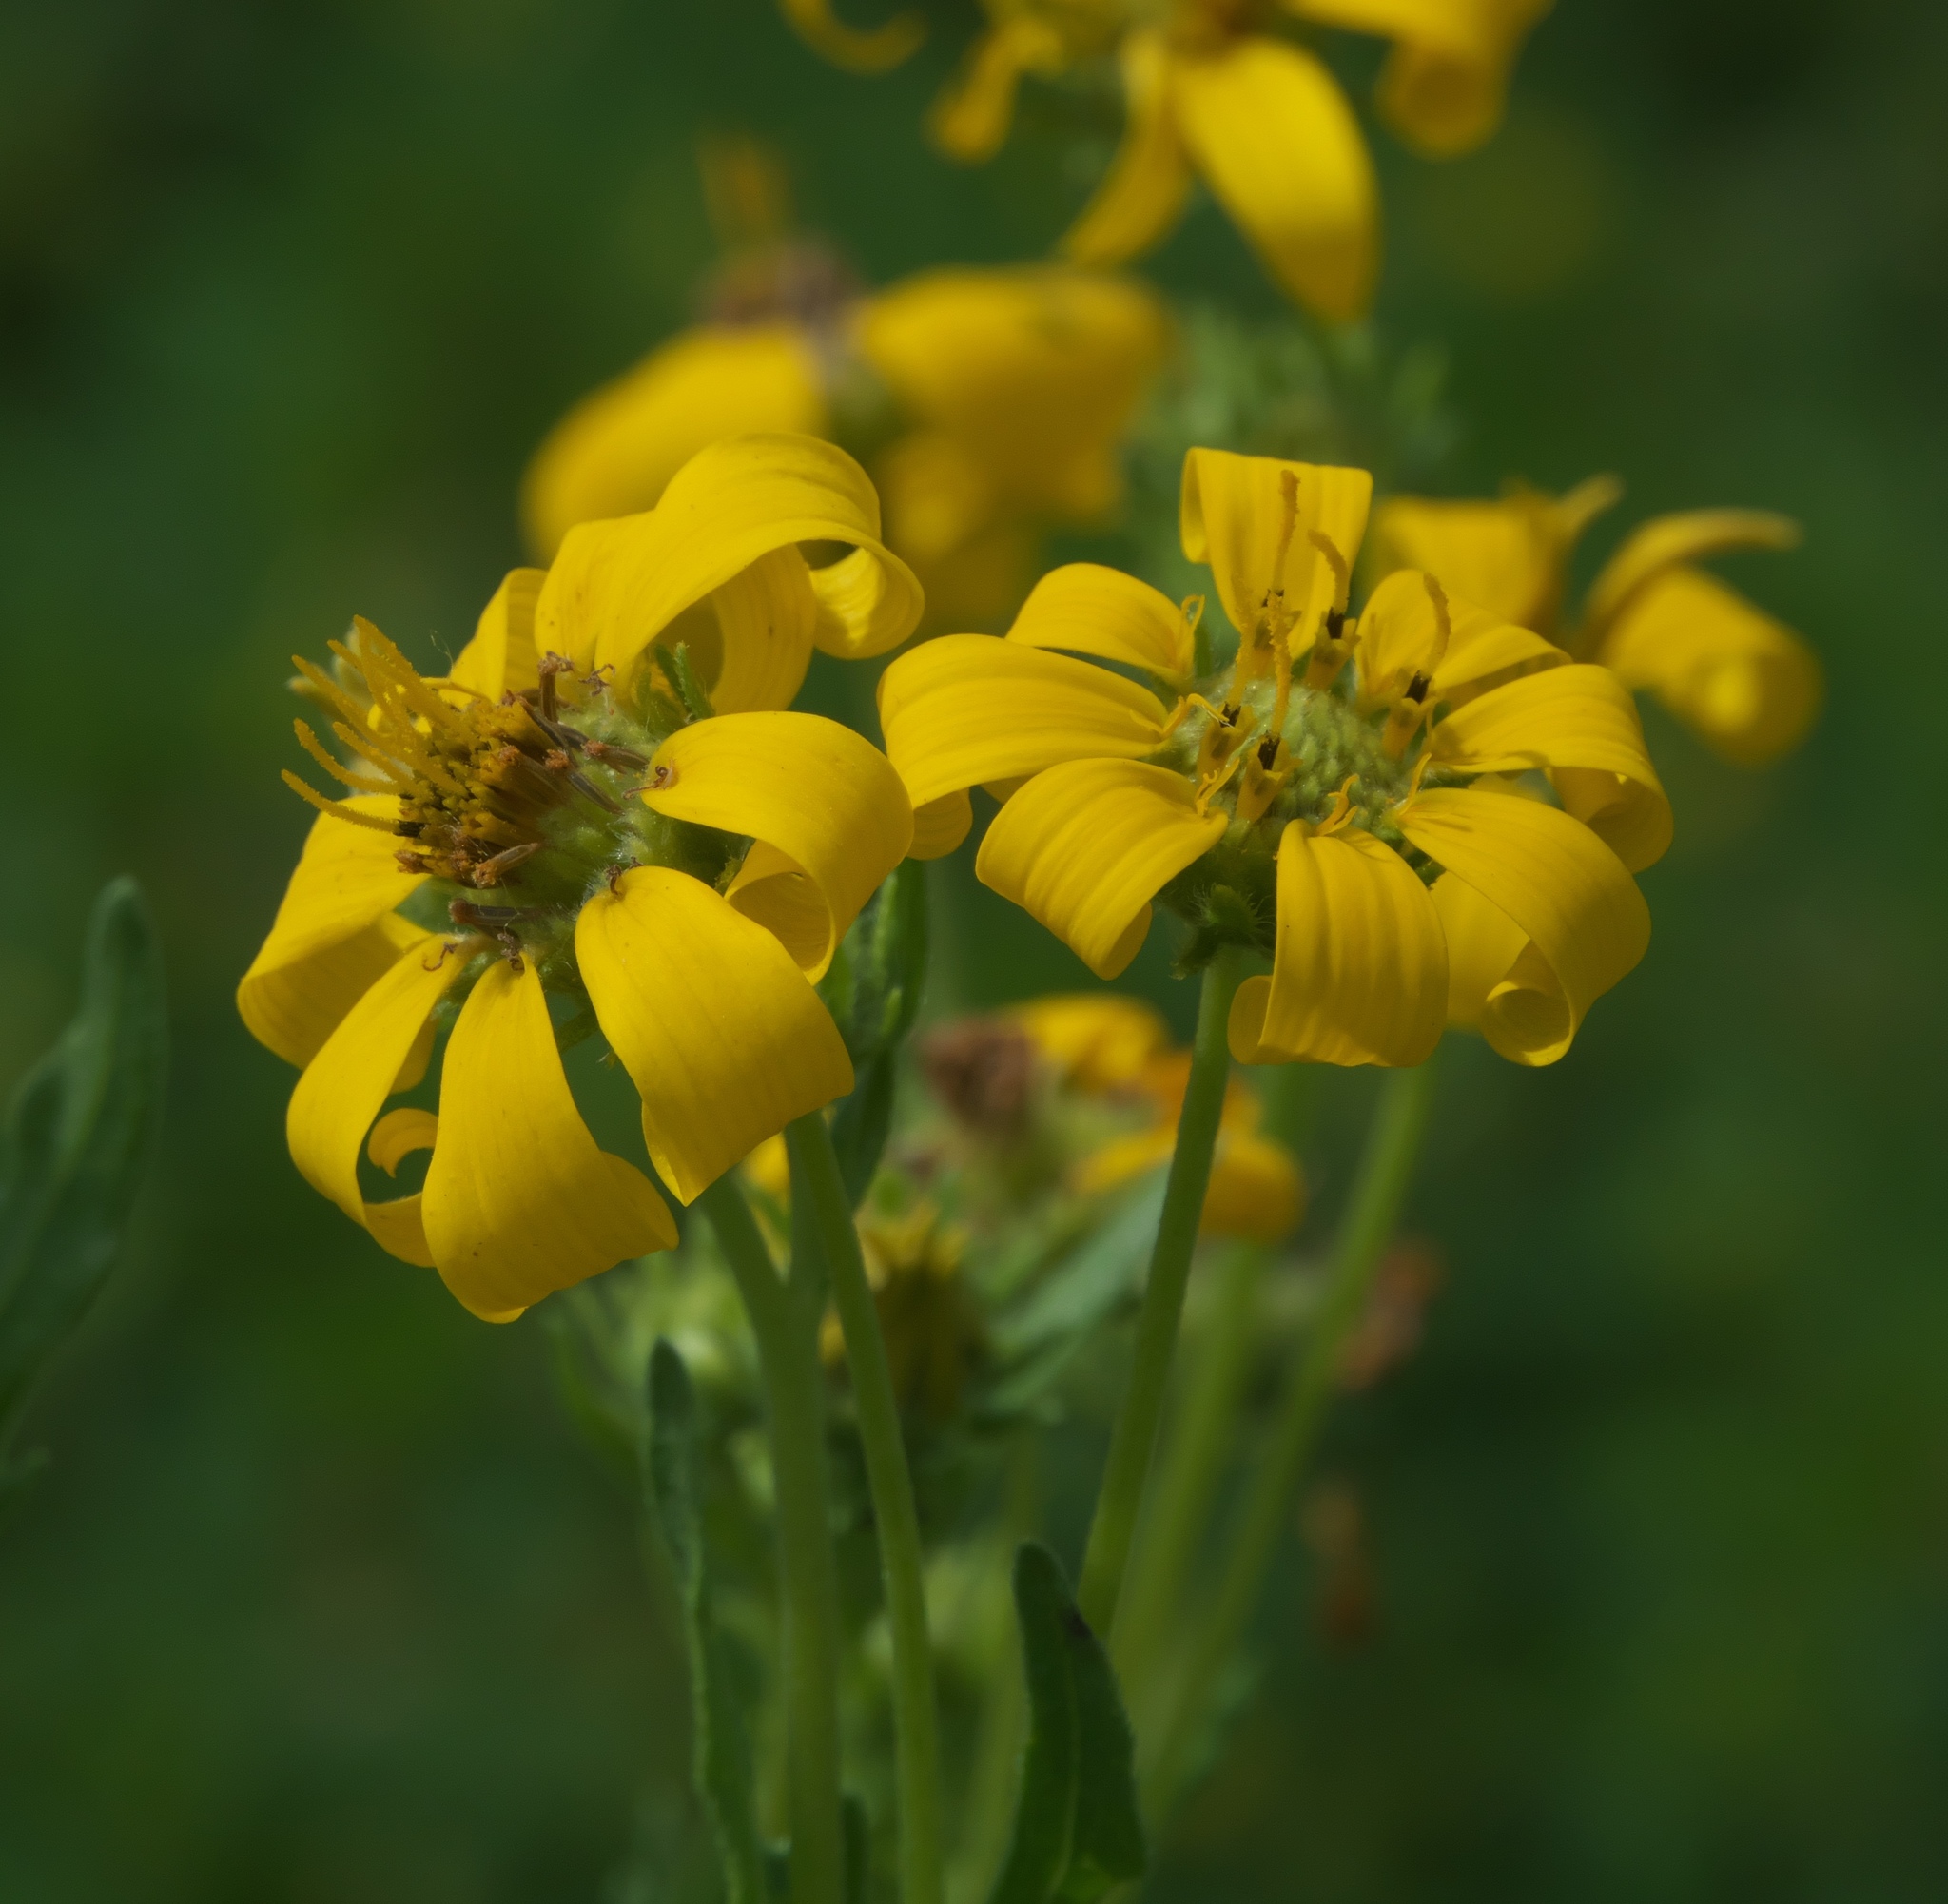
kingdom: Plantae
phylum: Tracheophyta
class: Magnoliopsida
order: Asterales
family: Asteraceae
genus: Engelmannia
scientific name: Engelmannia peristenia
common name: Engelmann's daisy
